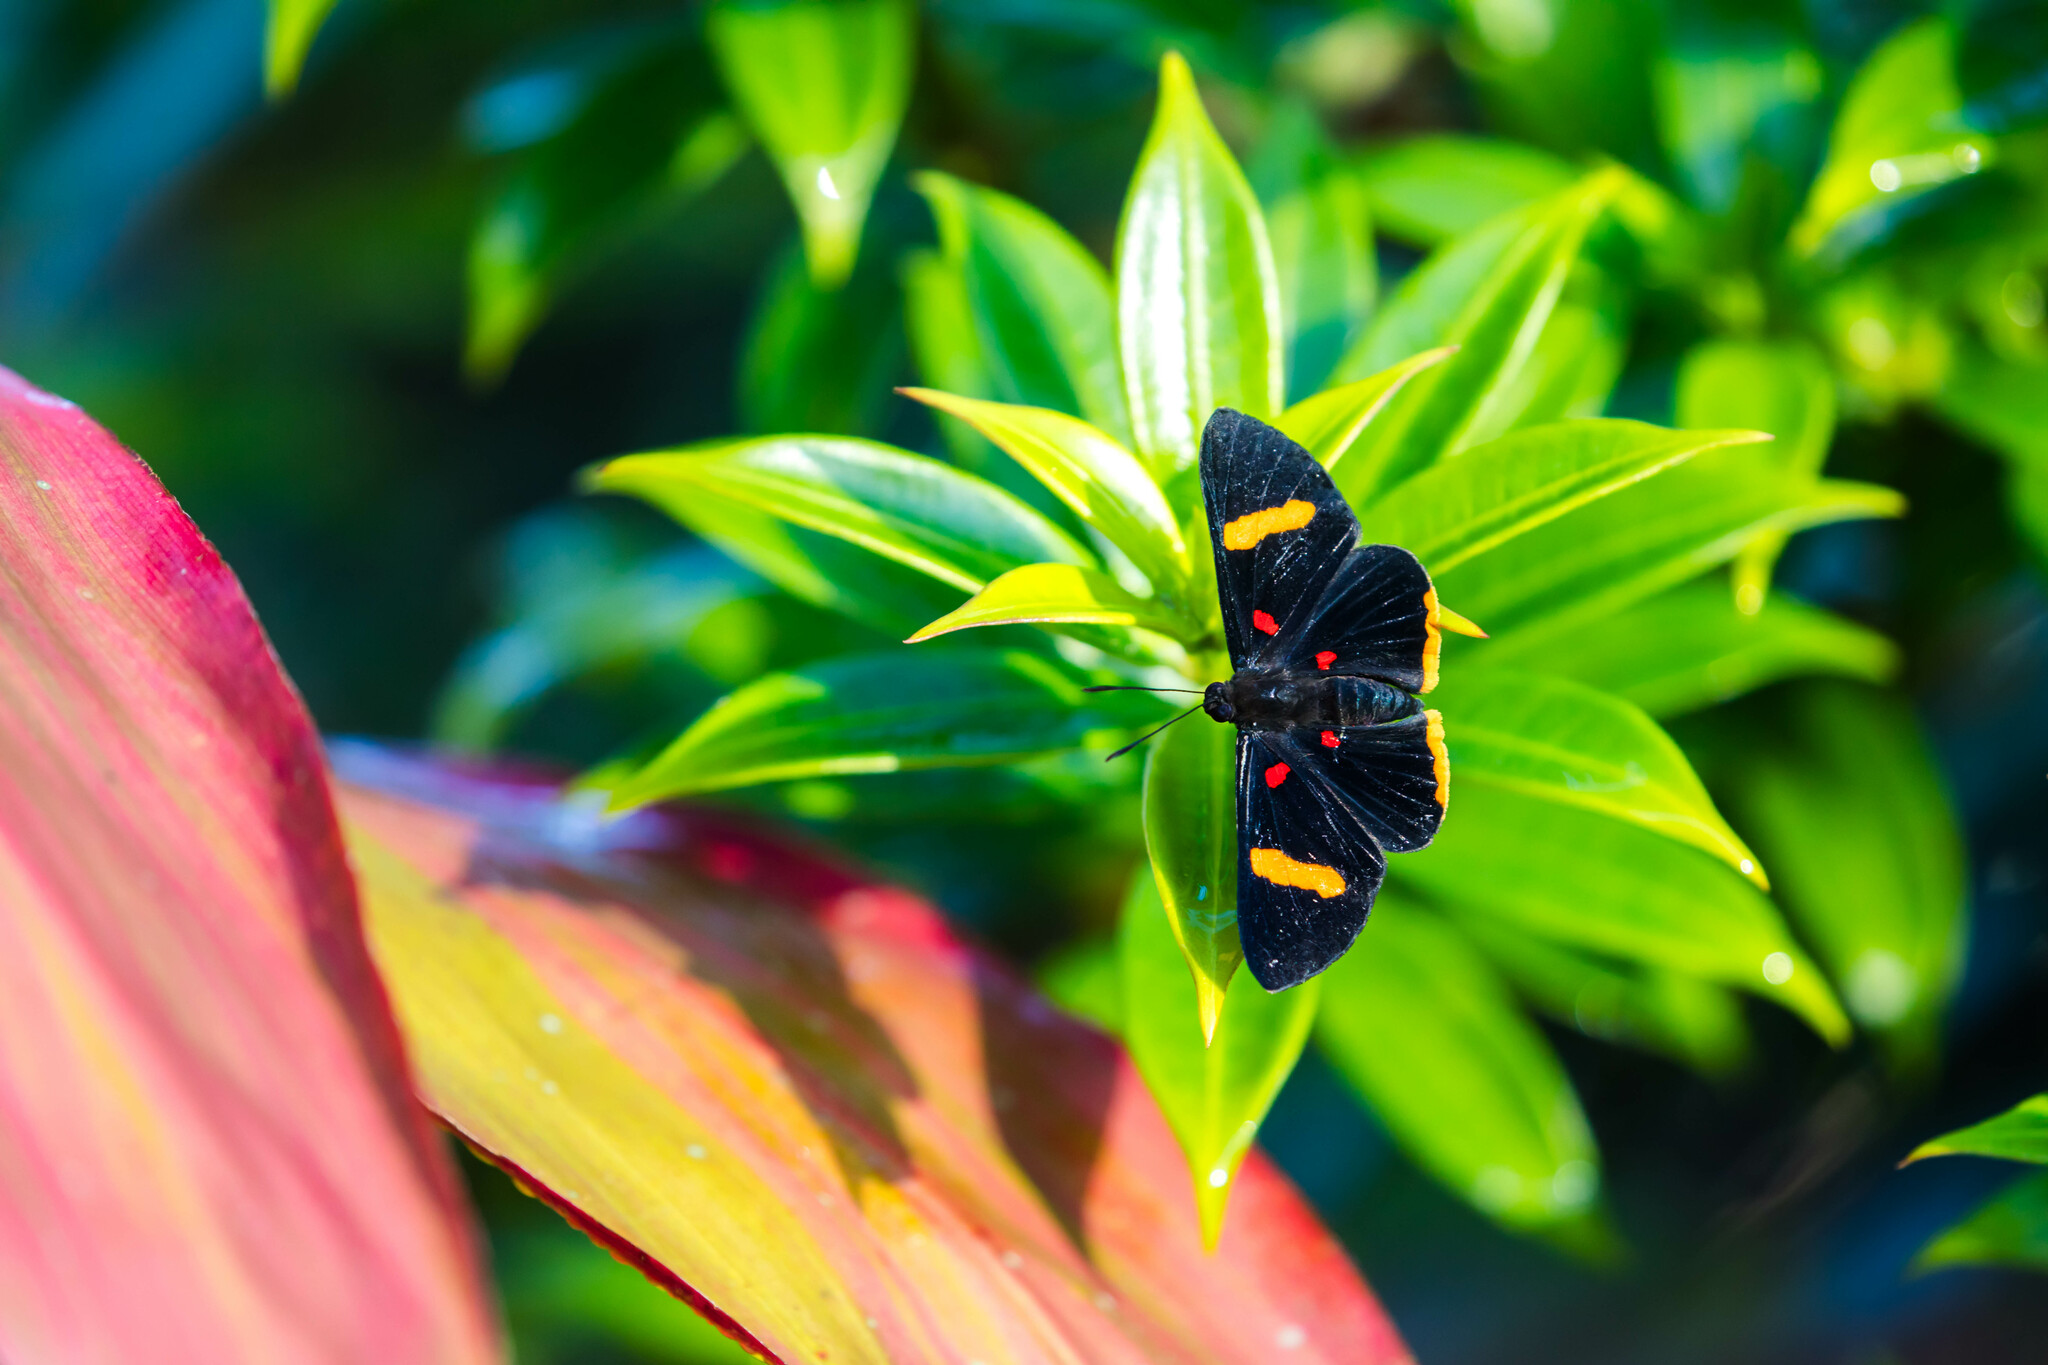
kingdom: Animalia
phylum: Arthropoda
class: Insecta
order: Lepidoptera
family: Lycaenidae
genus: Melanis
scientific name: Melanis electron
